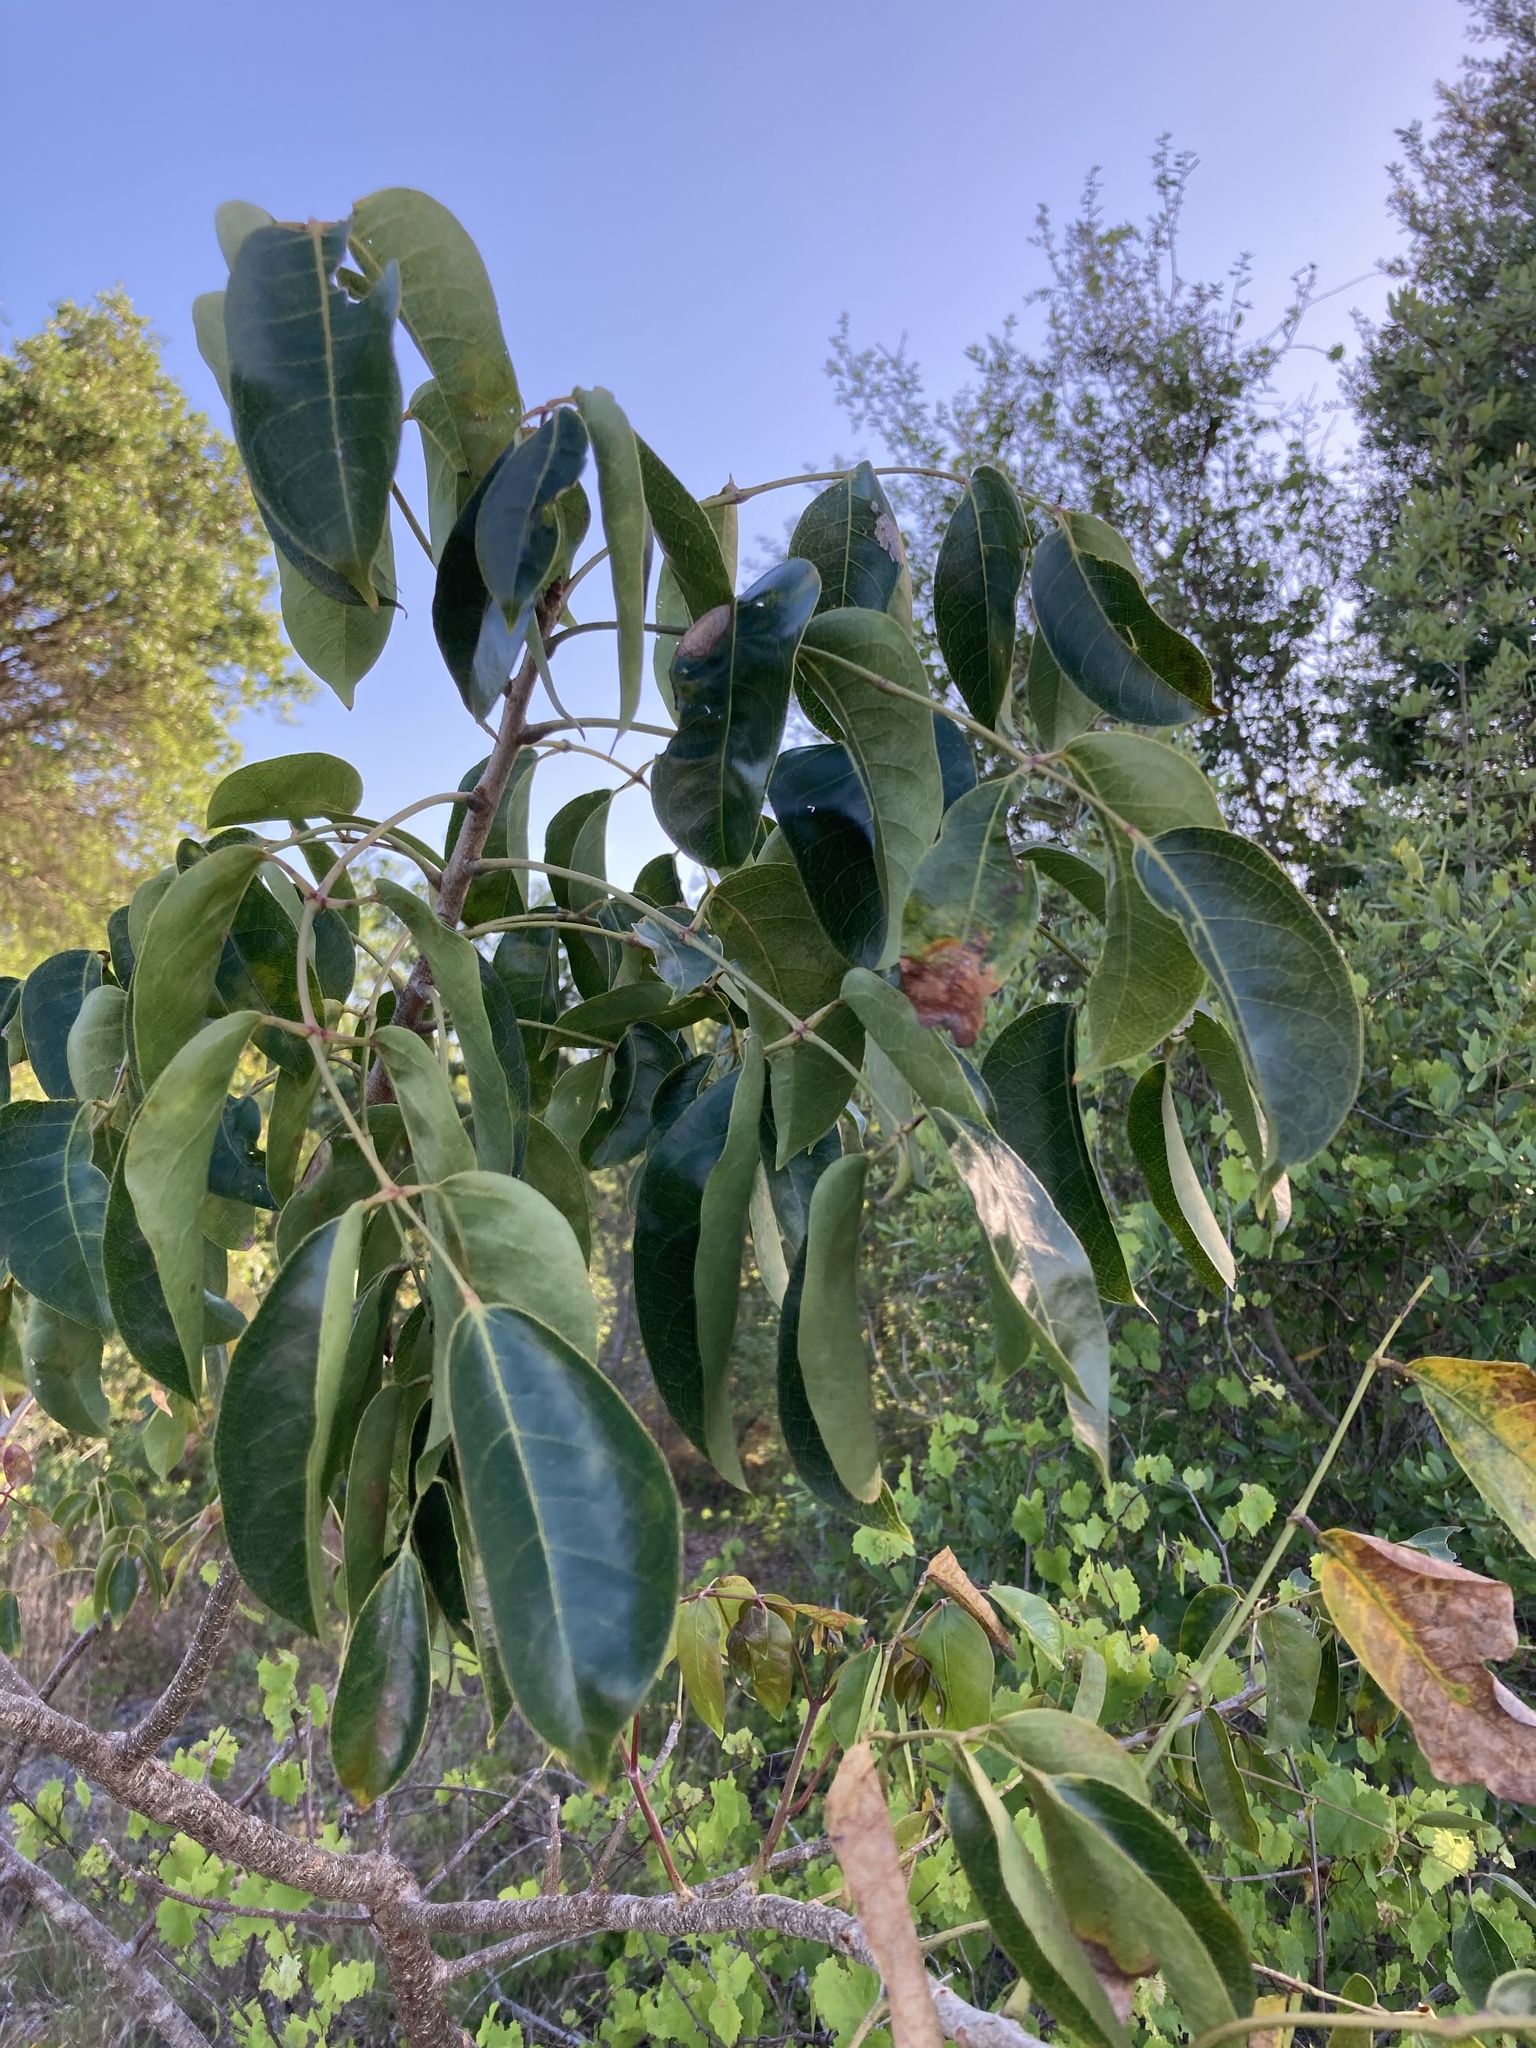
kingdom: Plantae
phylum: Tracheophyta
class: Magnoliopsida
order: Sapindales
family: Burseraceae
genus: Bursera
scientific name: Bursera simaruba
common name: Turpentine tree
